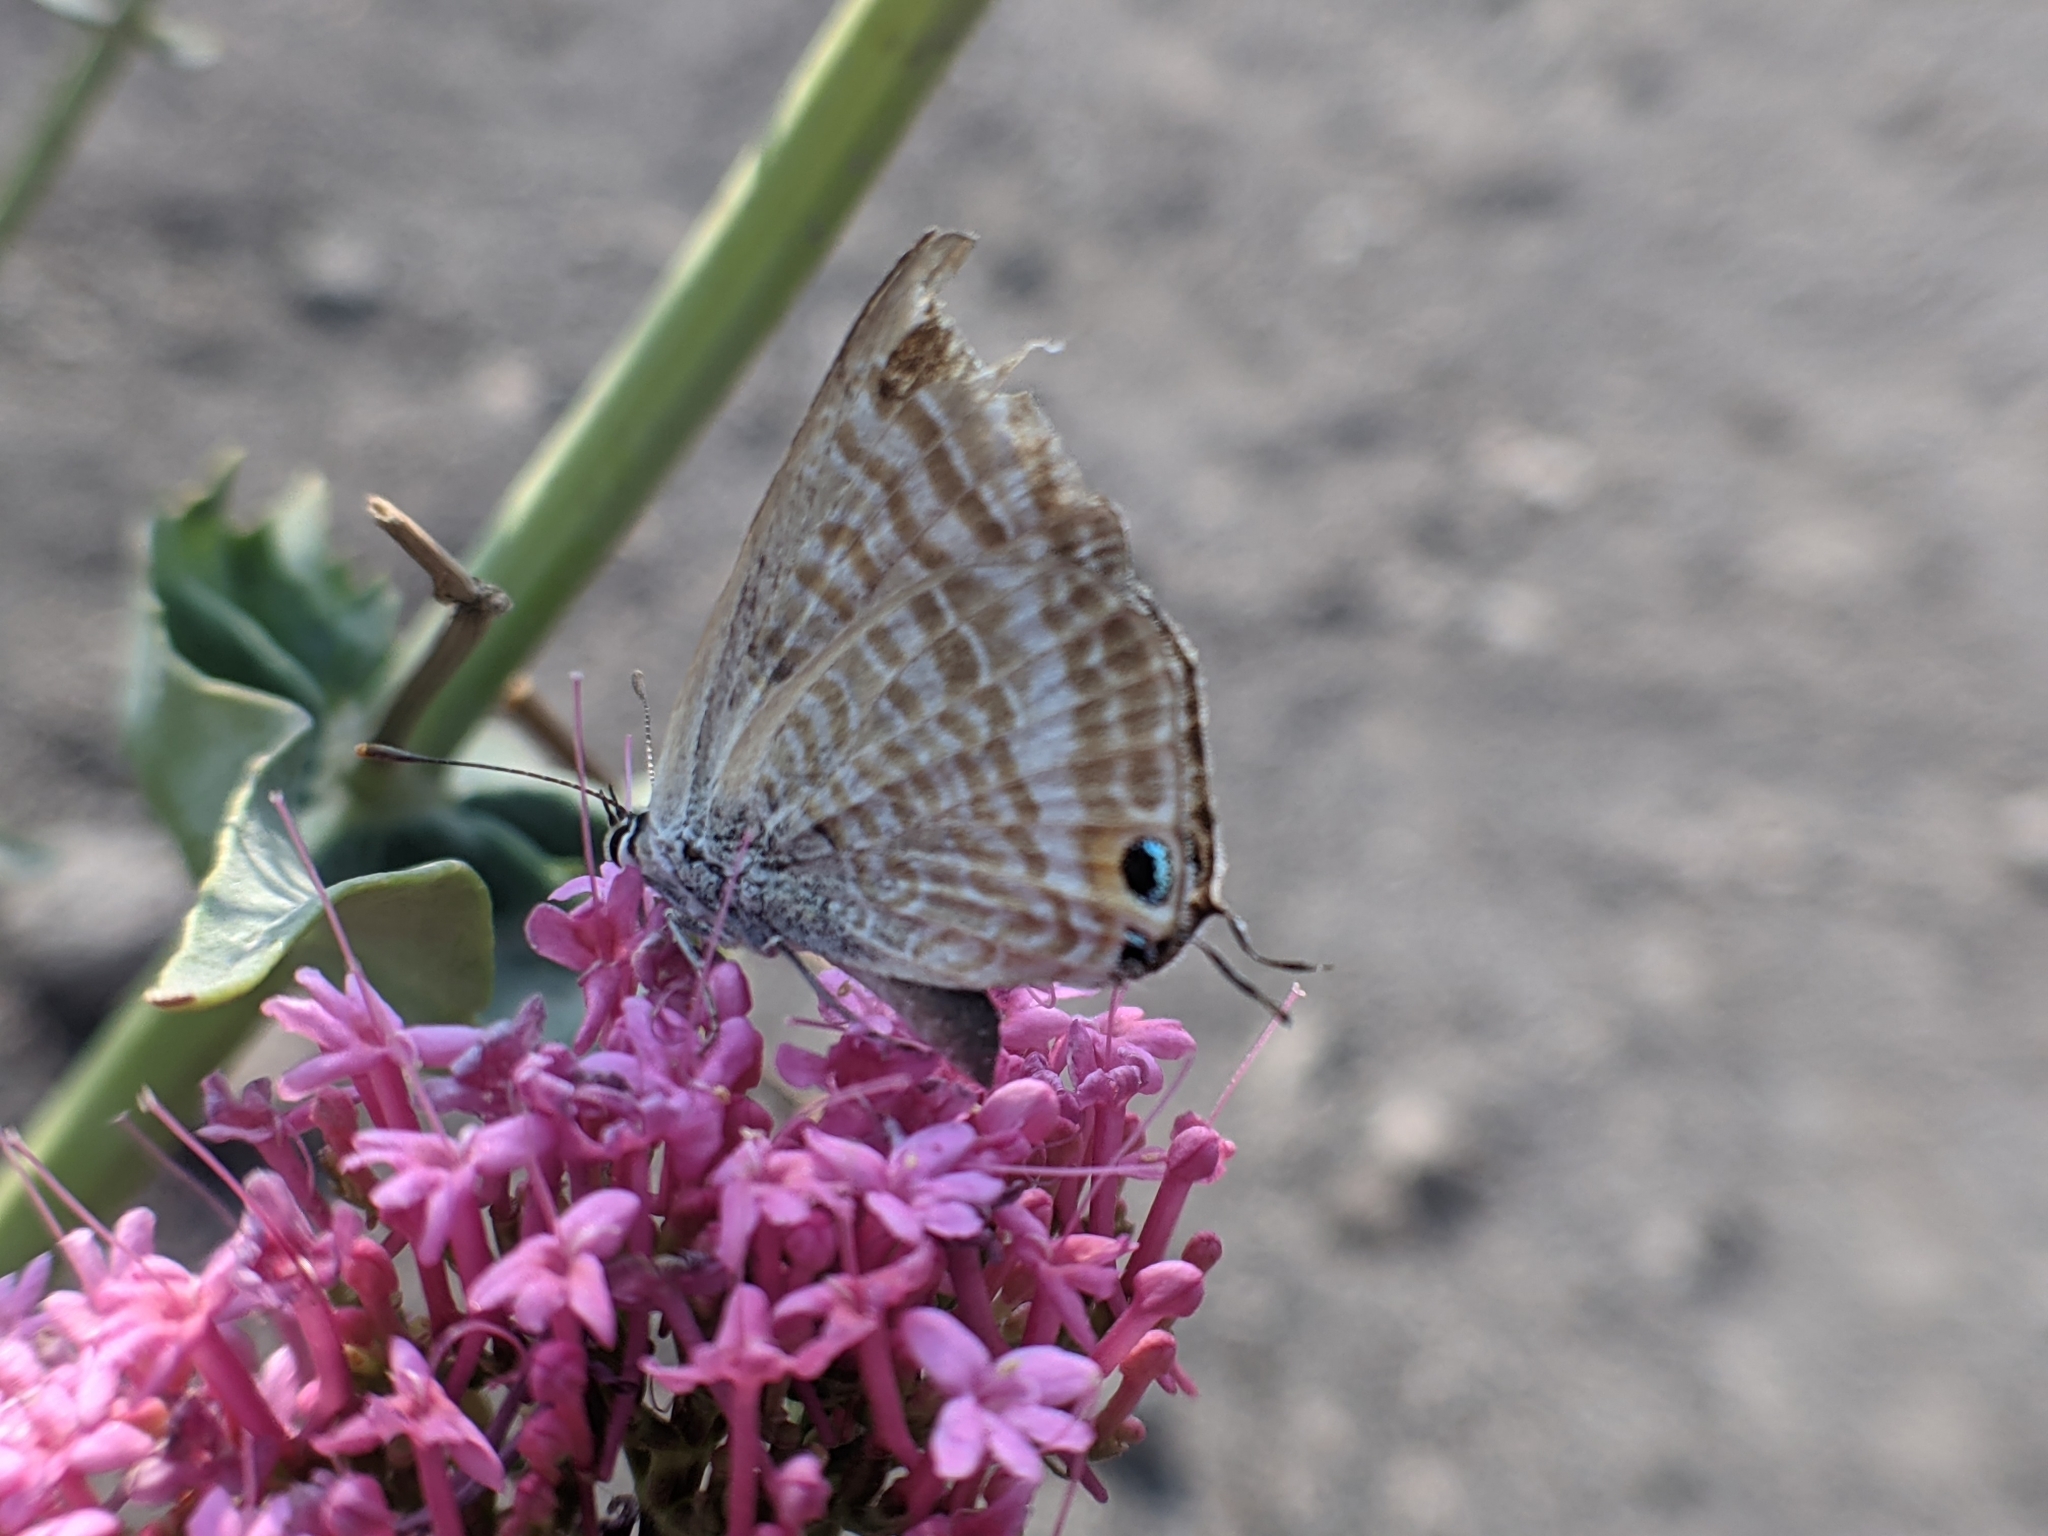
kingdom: Animalia
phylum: Arthropoda
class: Insecta
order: Lepidoptera
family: Lycaenidae
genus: Lampides
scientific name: Lampides boeticus
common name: Long-tailed blue
